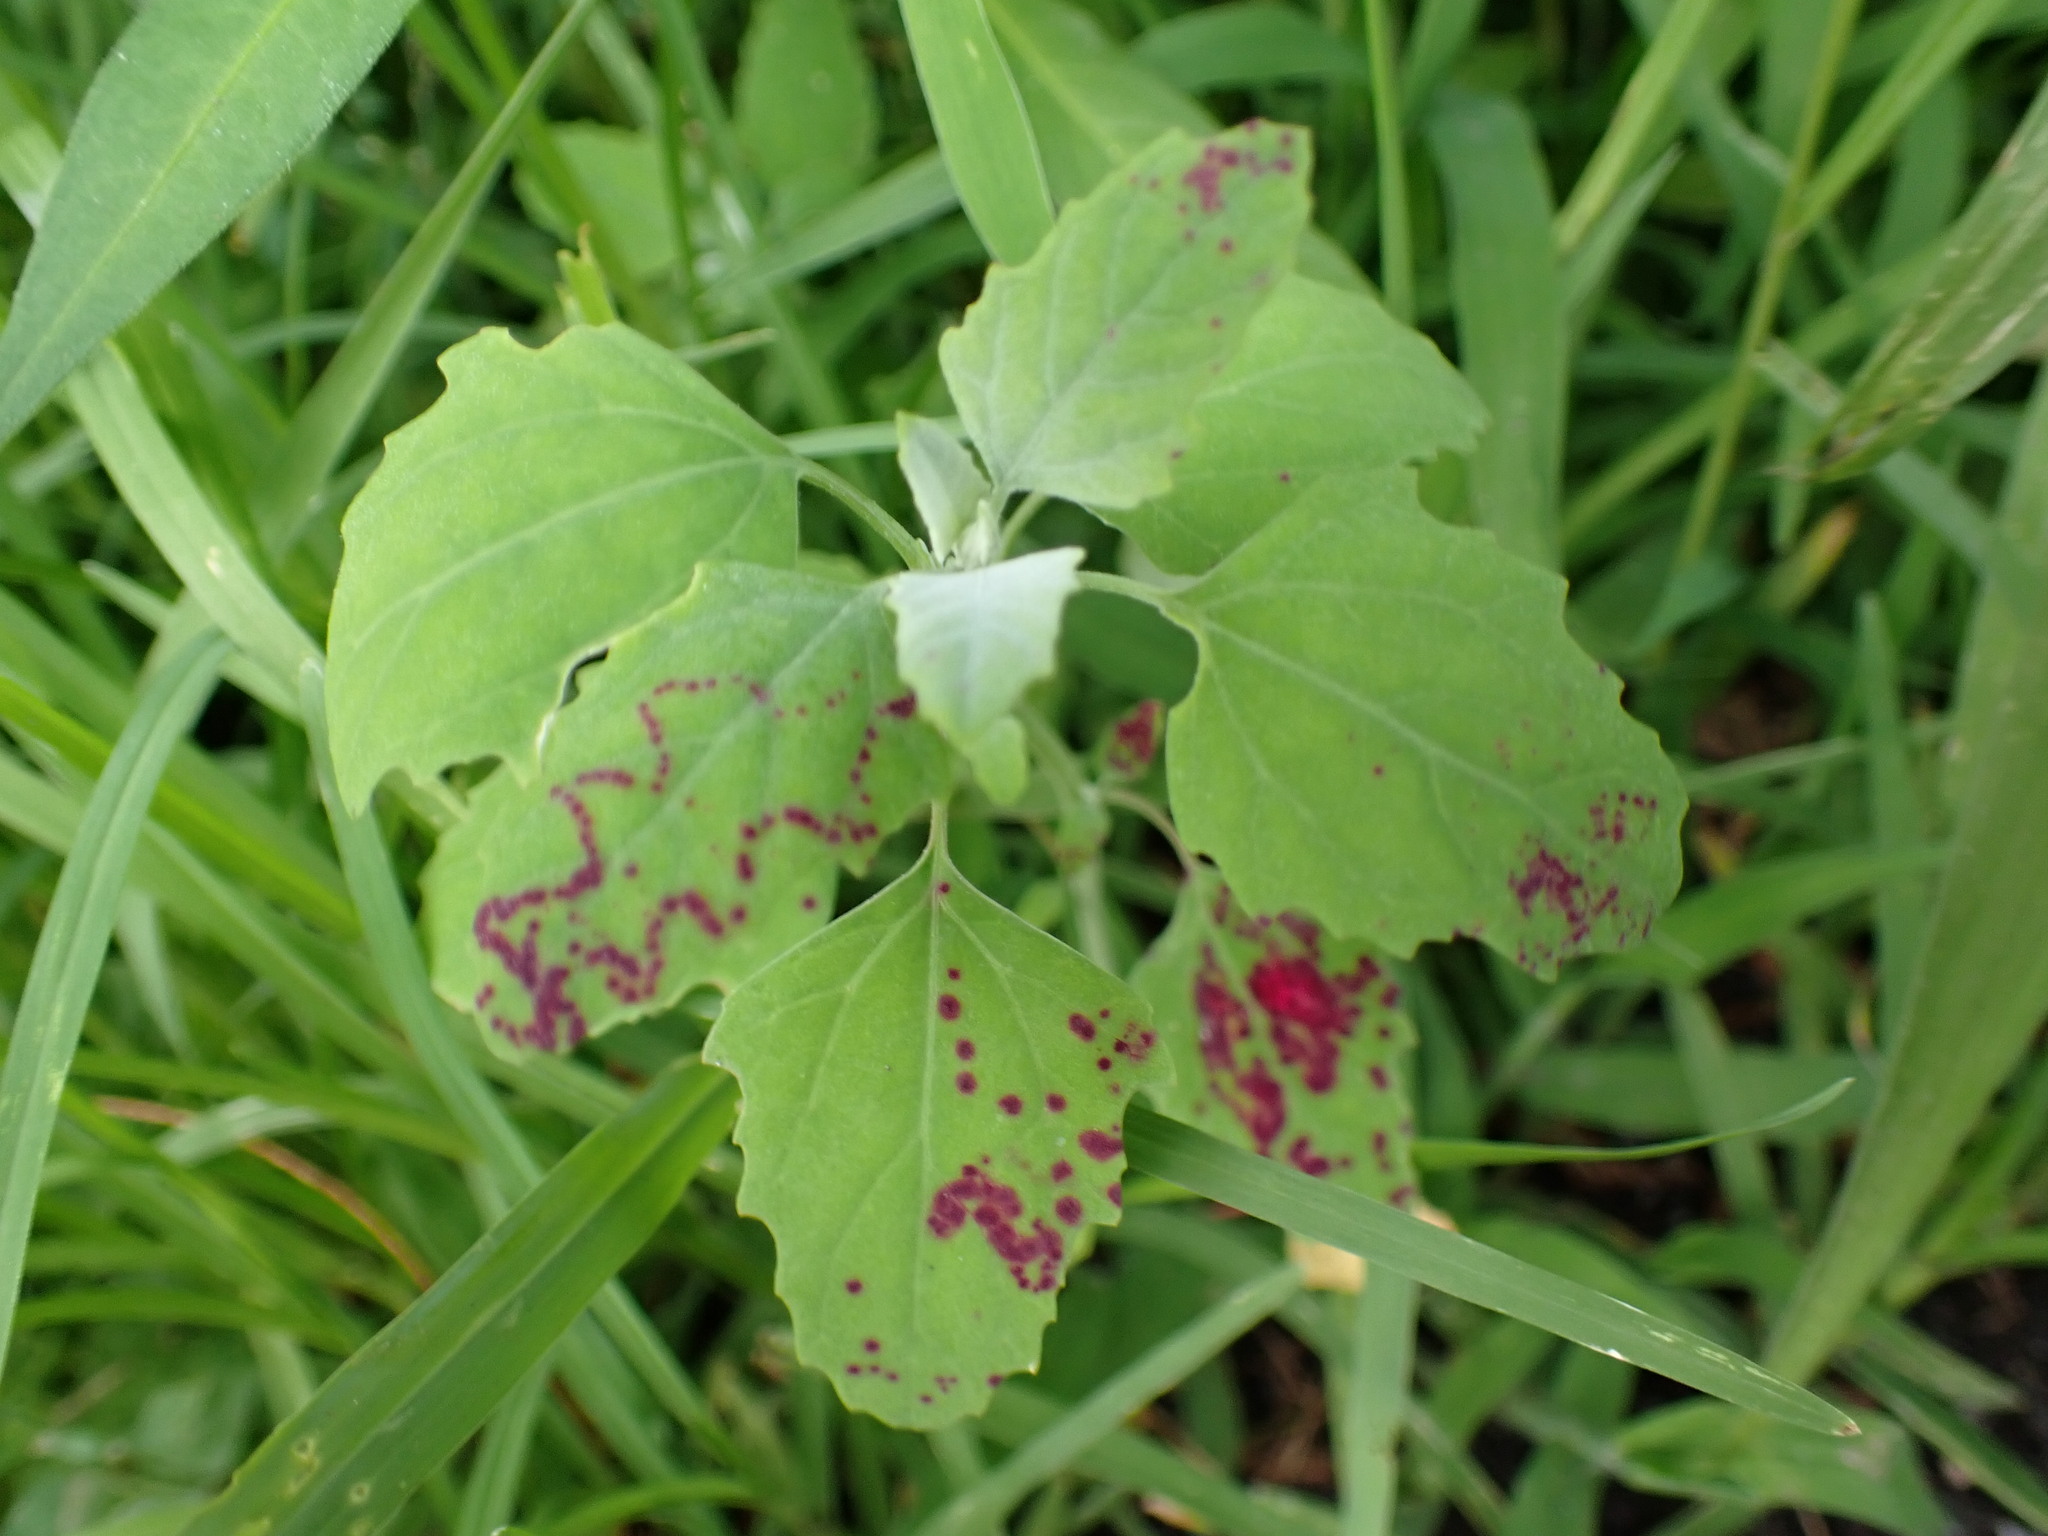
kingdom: Animalia
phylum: Arthropoda
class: Insecta
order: Hemiptera
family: Cicadellidae
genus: Norvellina
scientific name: Norvellina chenopodii
